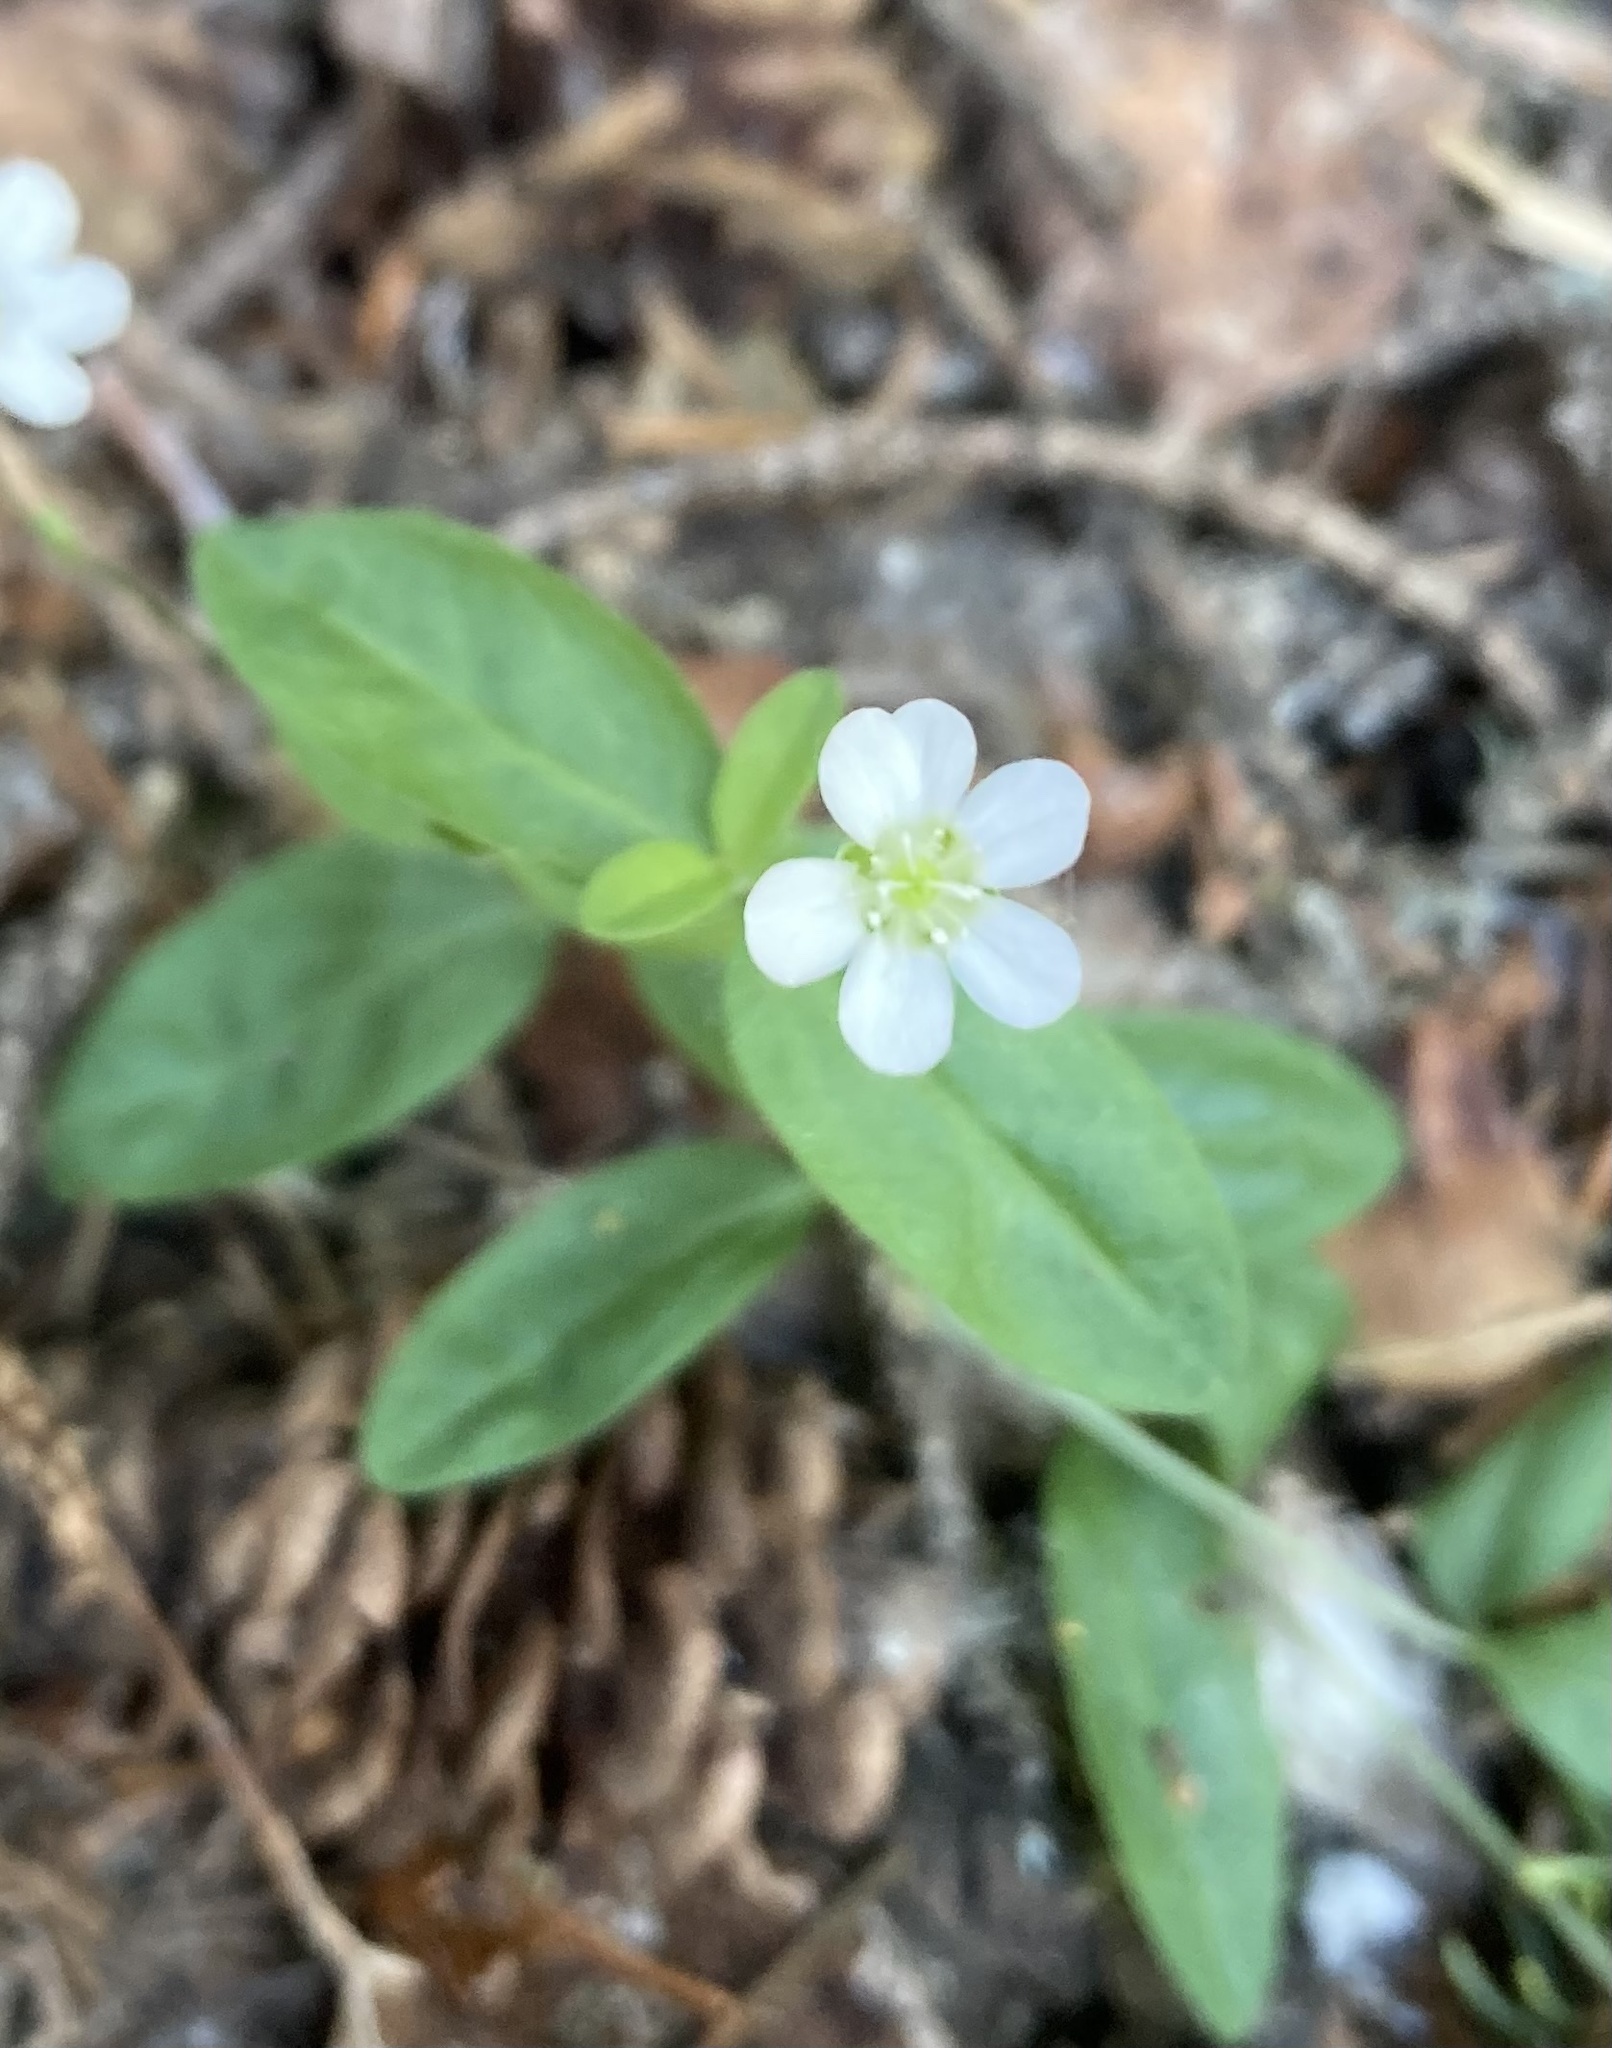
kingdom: Plantae
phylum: Tracheophyta
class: Magnoliopsida
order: Caryophyllales
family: Caryophyllaceae
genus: Moehringia
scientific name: Moehringia lateriflora
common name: Blunt-leaved sandwort
